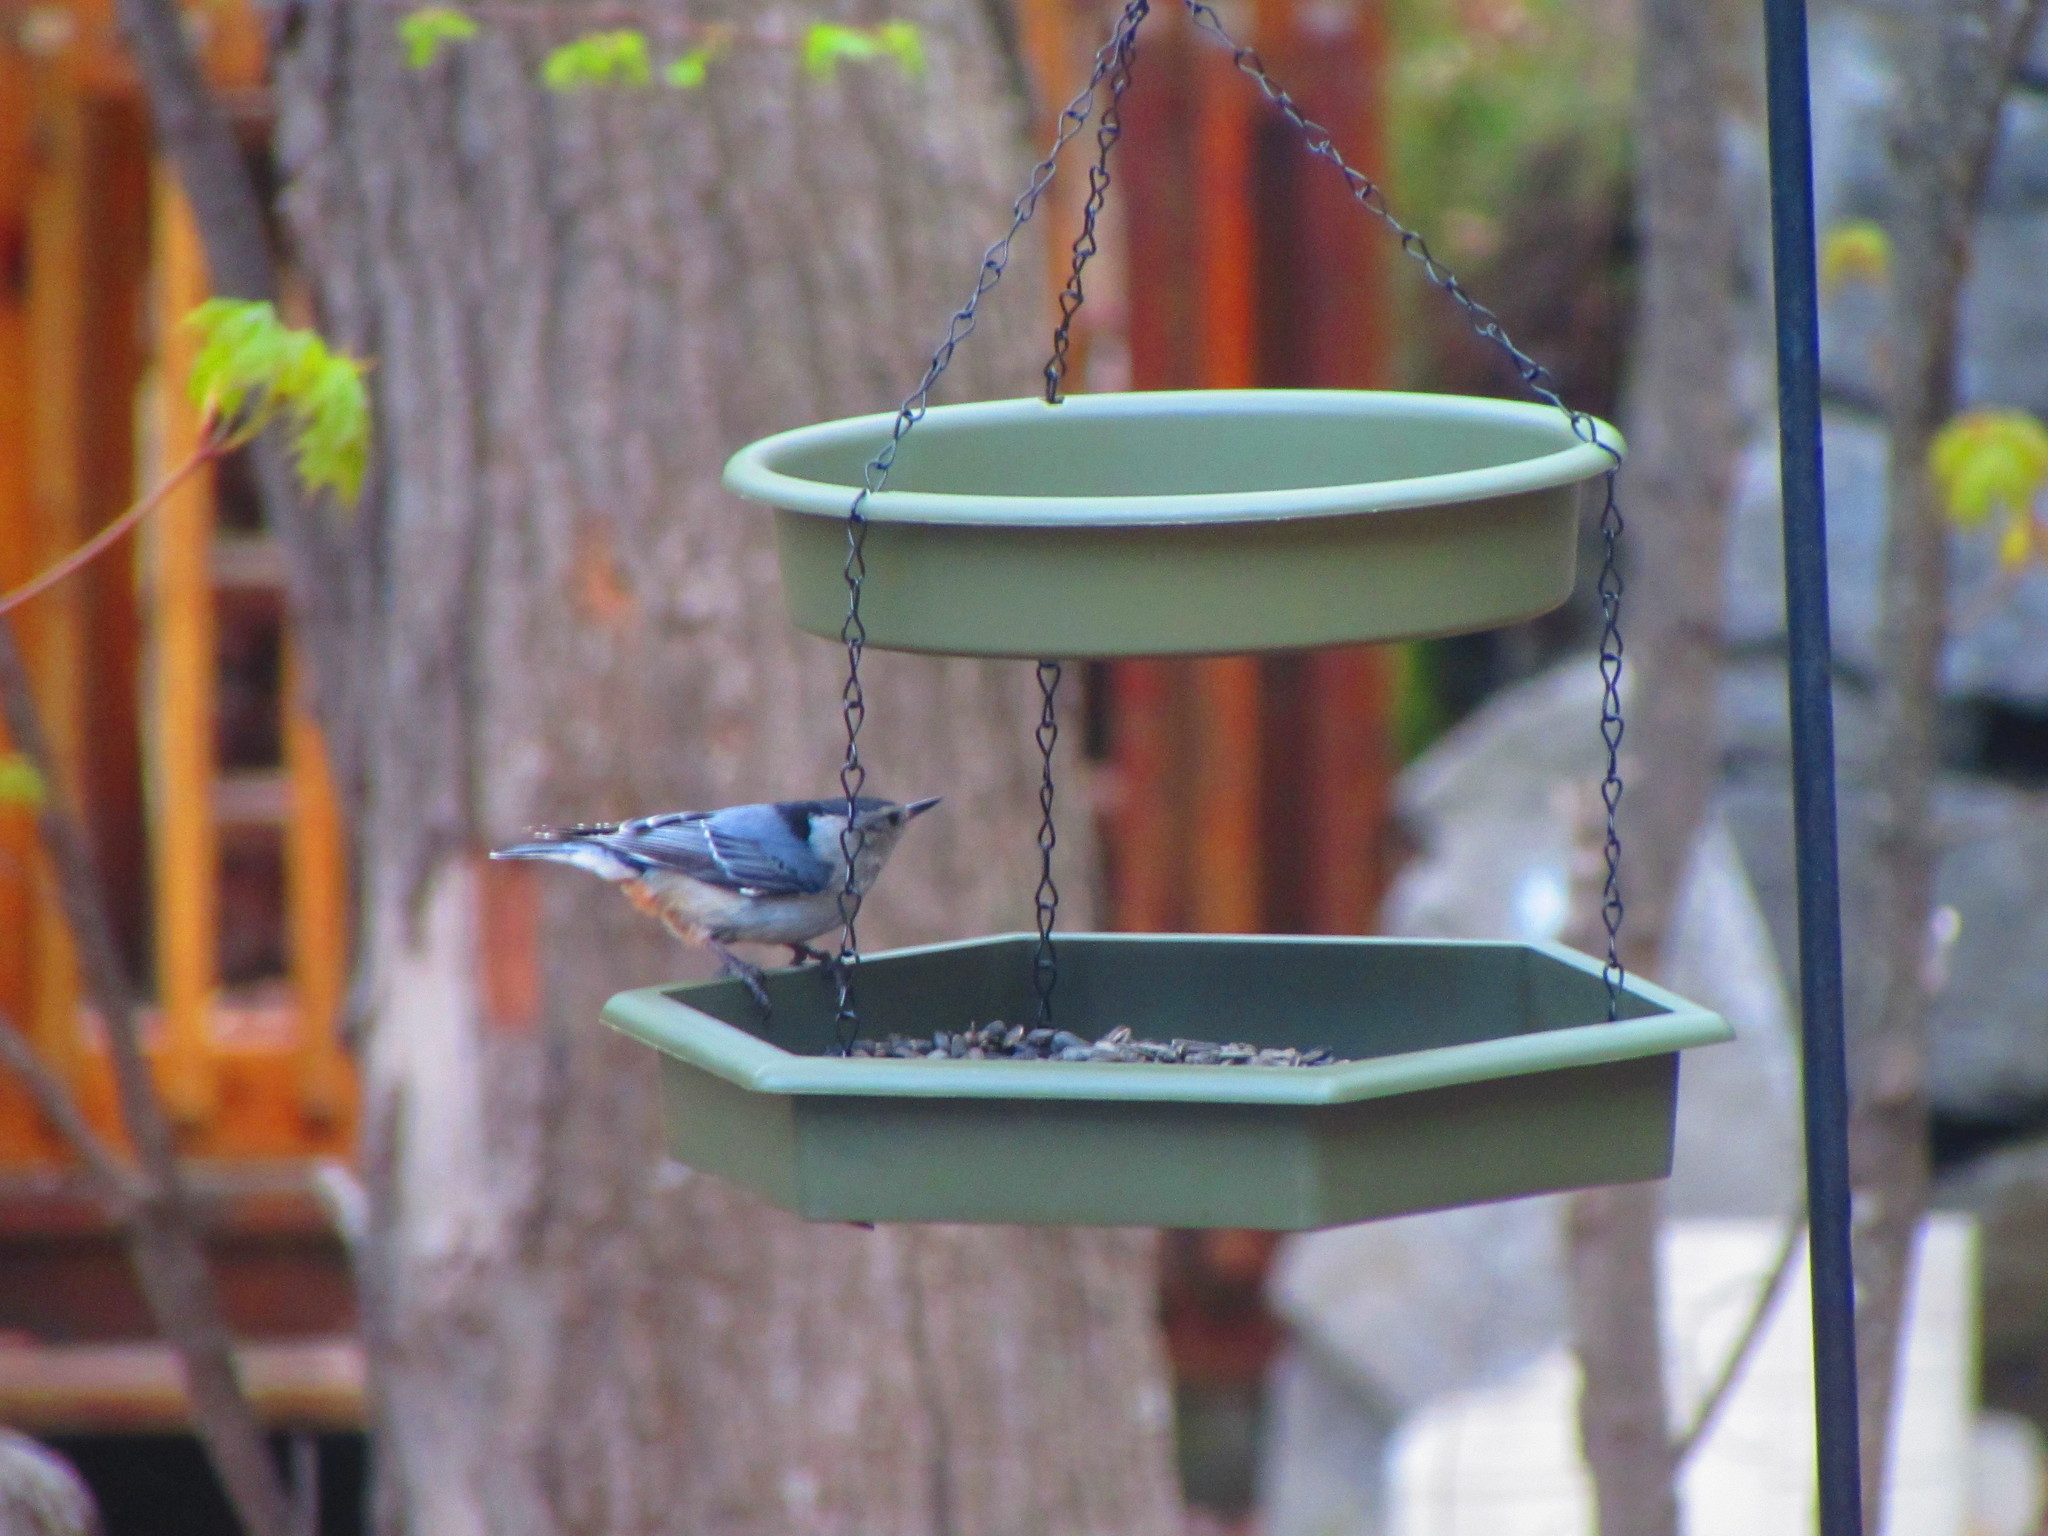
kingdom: Animalia
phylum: Chordata
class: Aves
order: Passeriformes
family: Sittidae
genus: Sitta
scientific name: Sitta carolinensis
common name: White-breasted nuthatch
